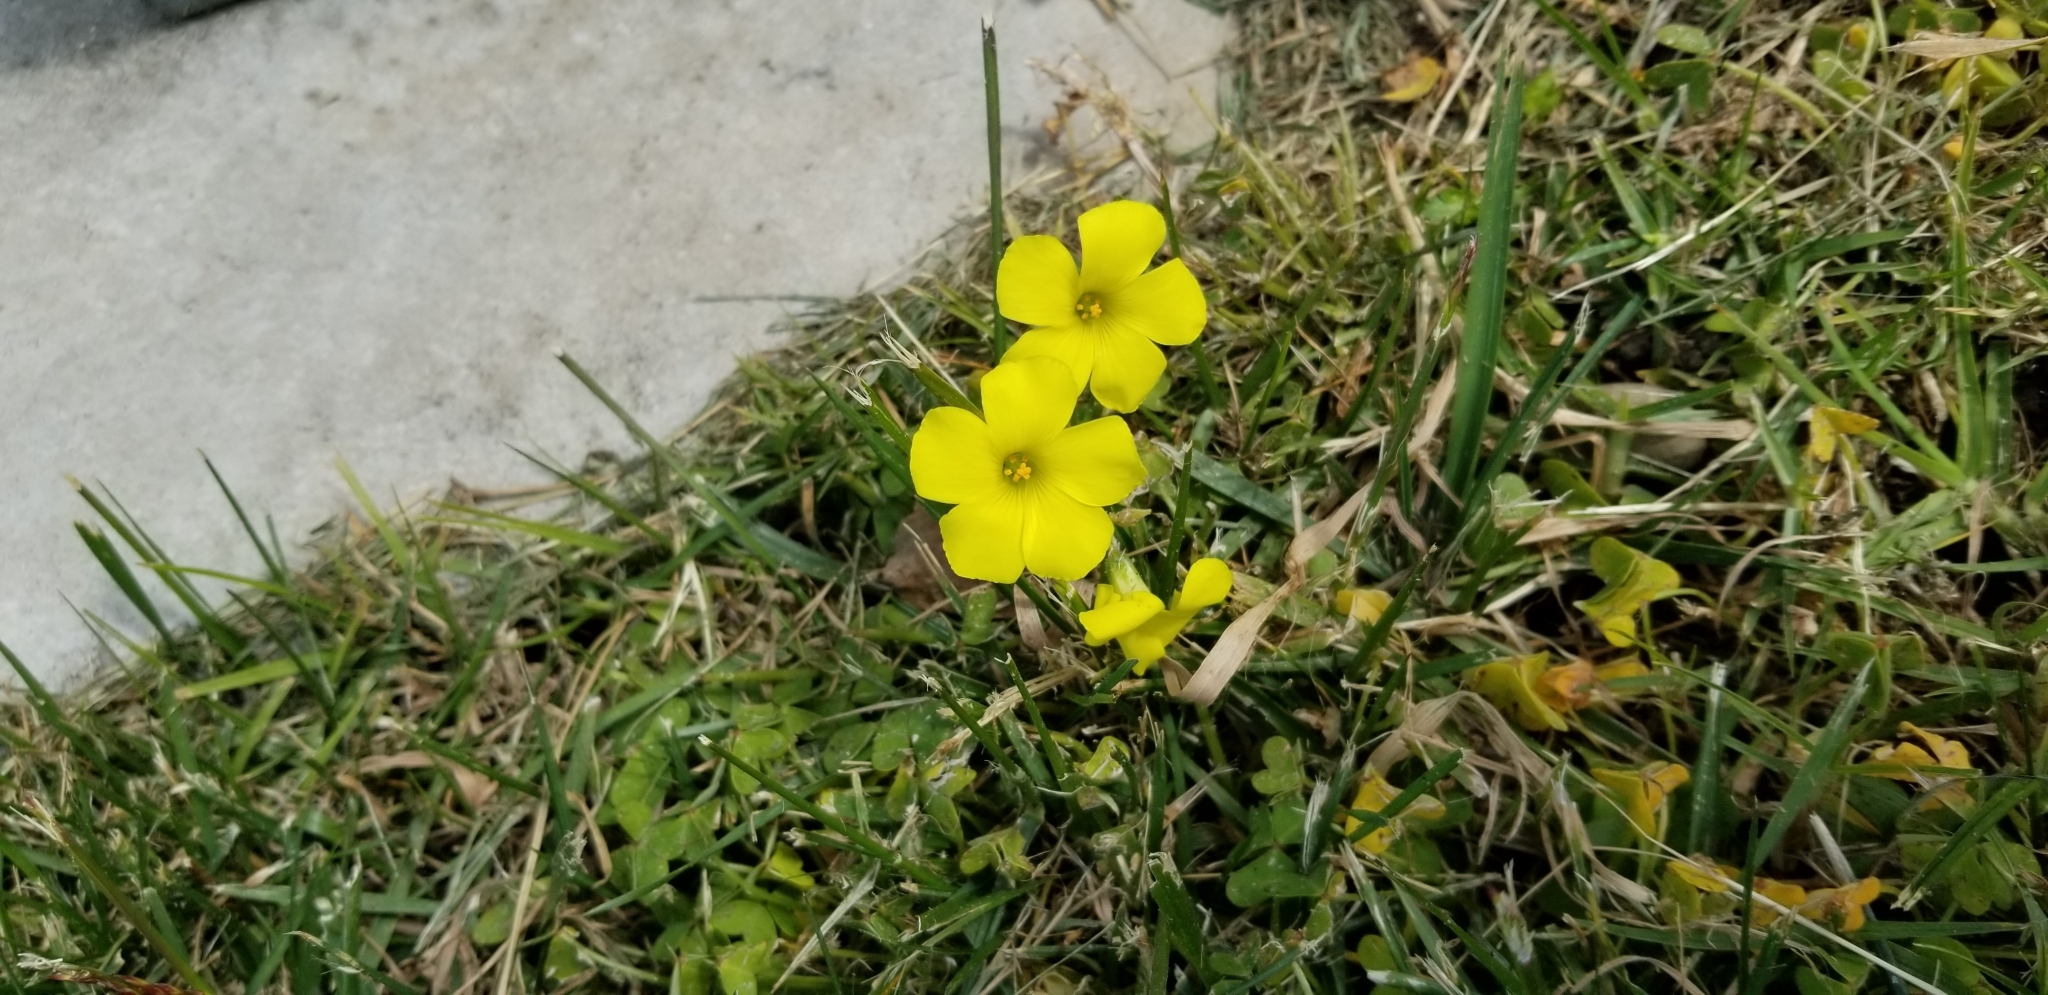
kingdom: Plantae
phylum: Tracheophyta
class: Magnoliopsida
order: Oxalidales
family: Oxalidaceae
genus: Oxalis
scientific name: Oxalis pes-caprae
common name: Bermuda-buttercup
